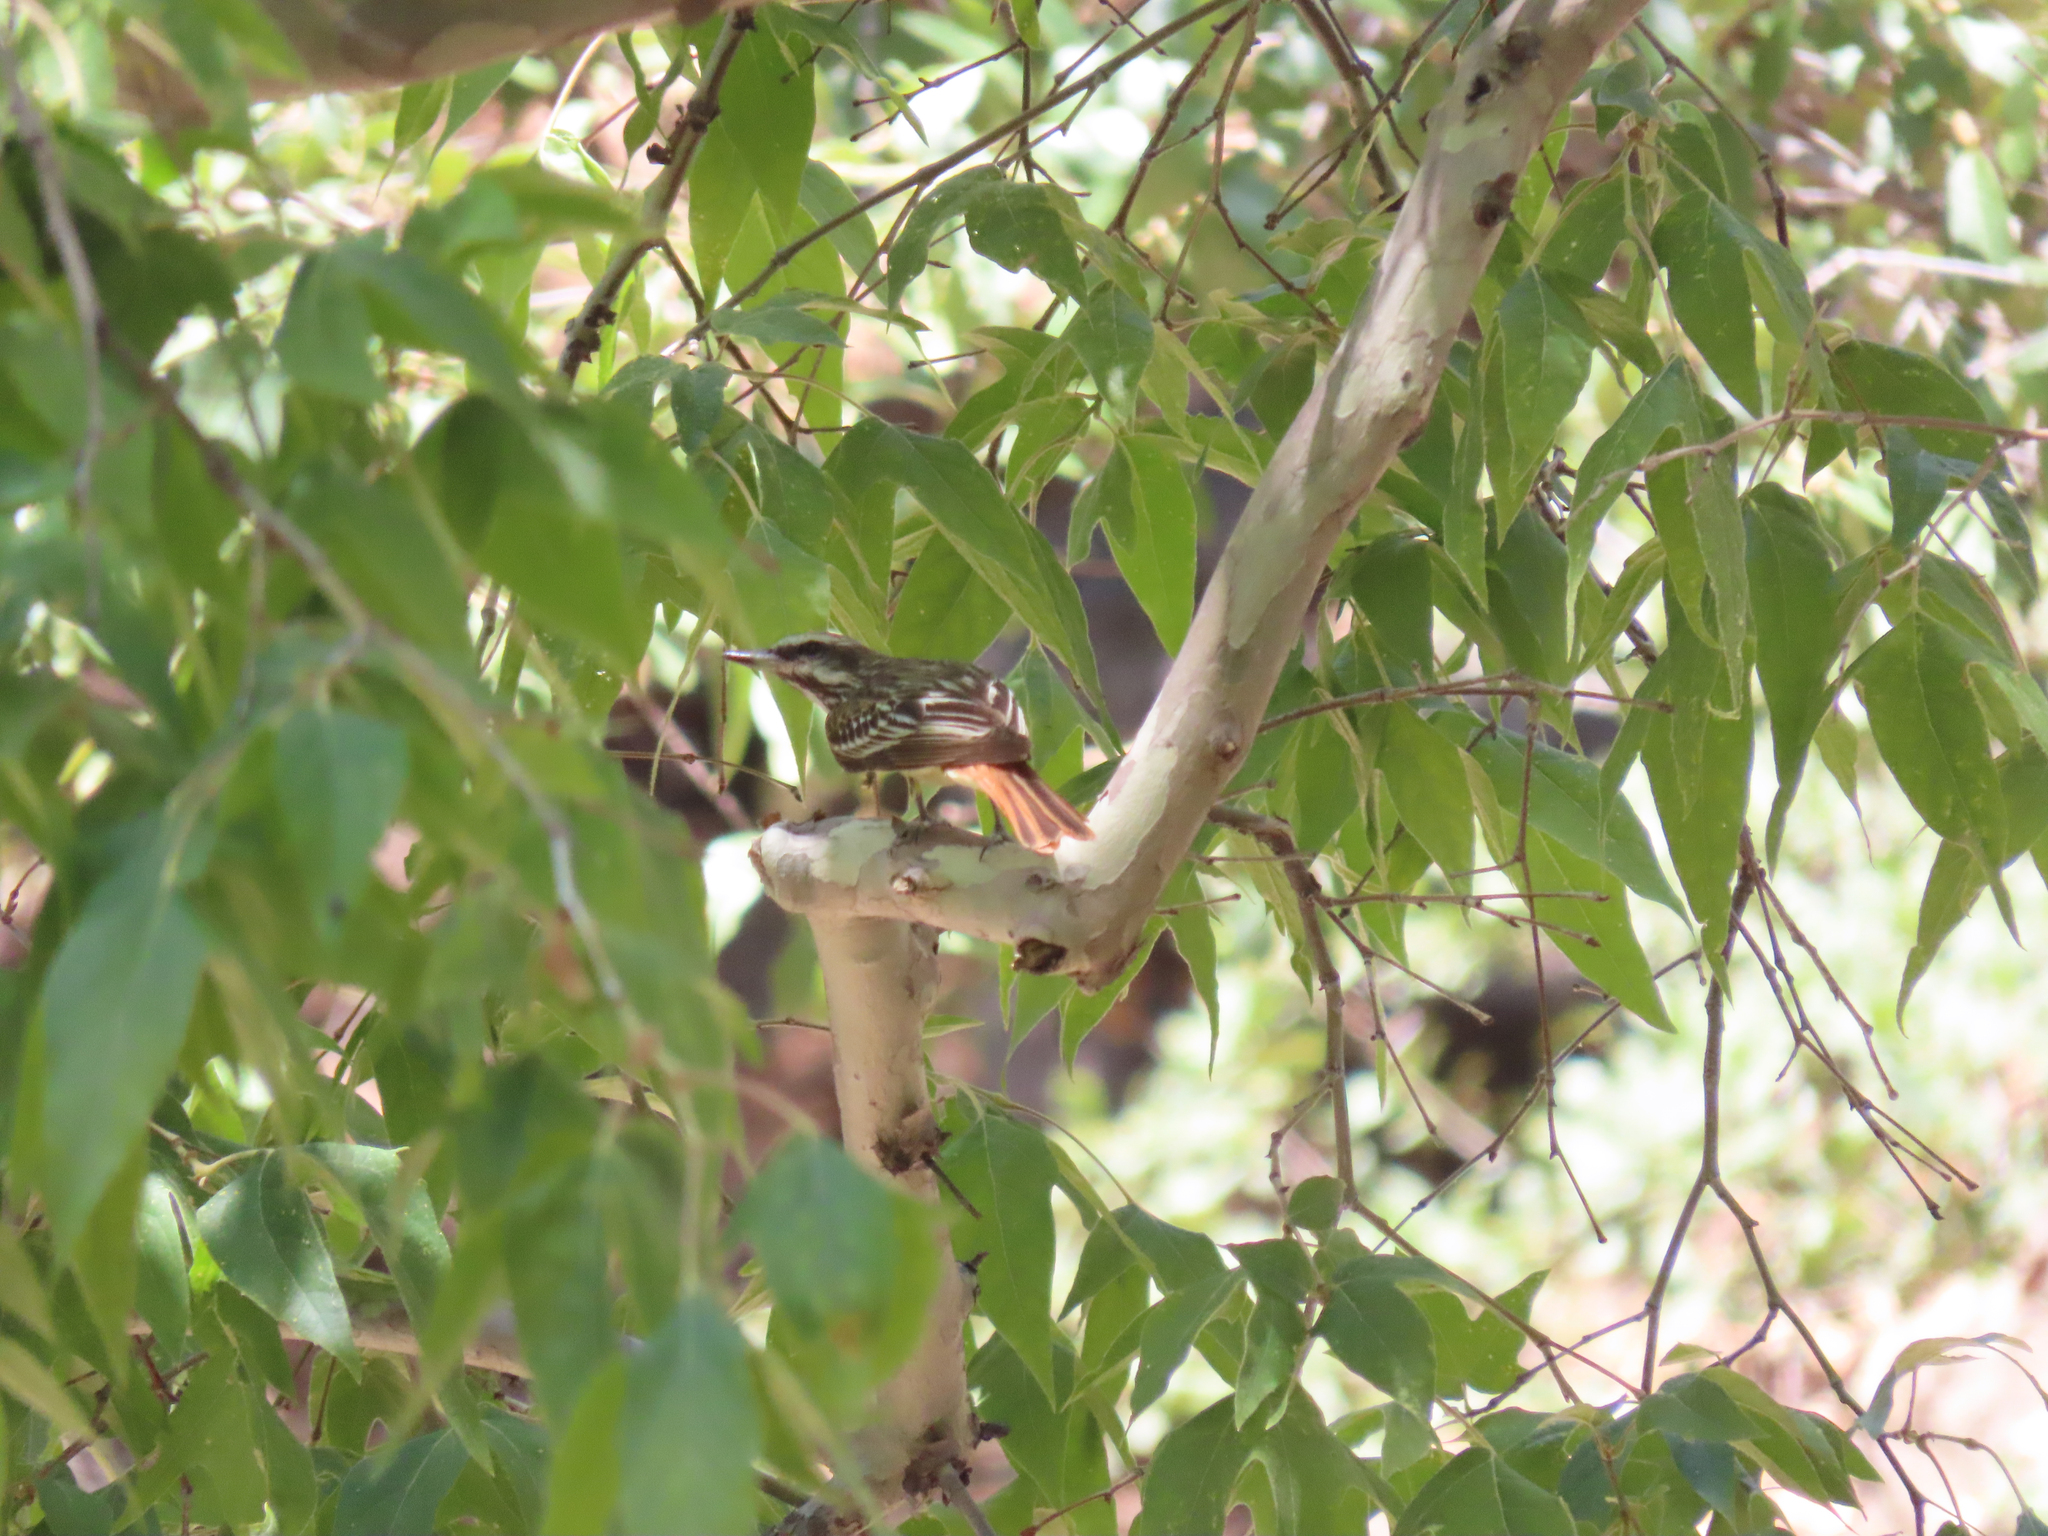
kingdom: Animalia
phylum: Chordata
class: Aves
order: Passeriformes
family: Tyrannidae
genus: Myiodynastes
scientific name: Myiodynastes luteiventris
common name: Sulphur-bellied flycatcher
